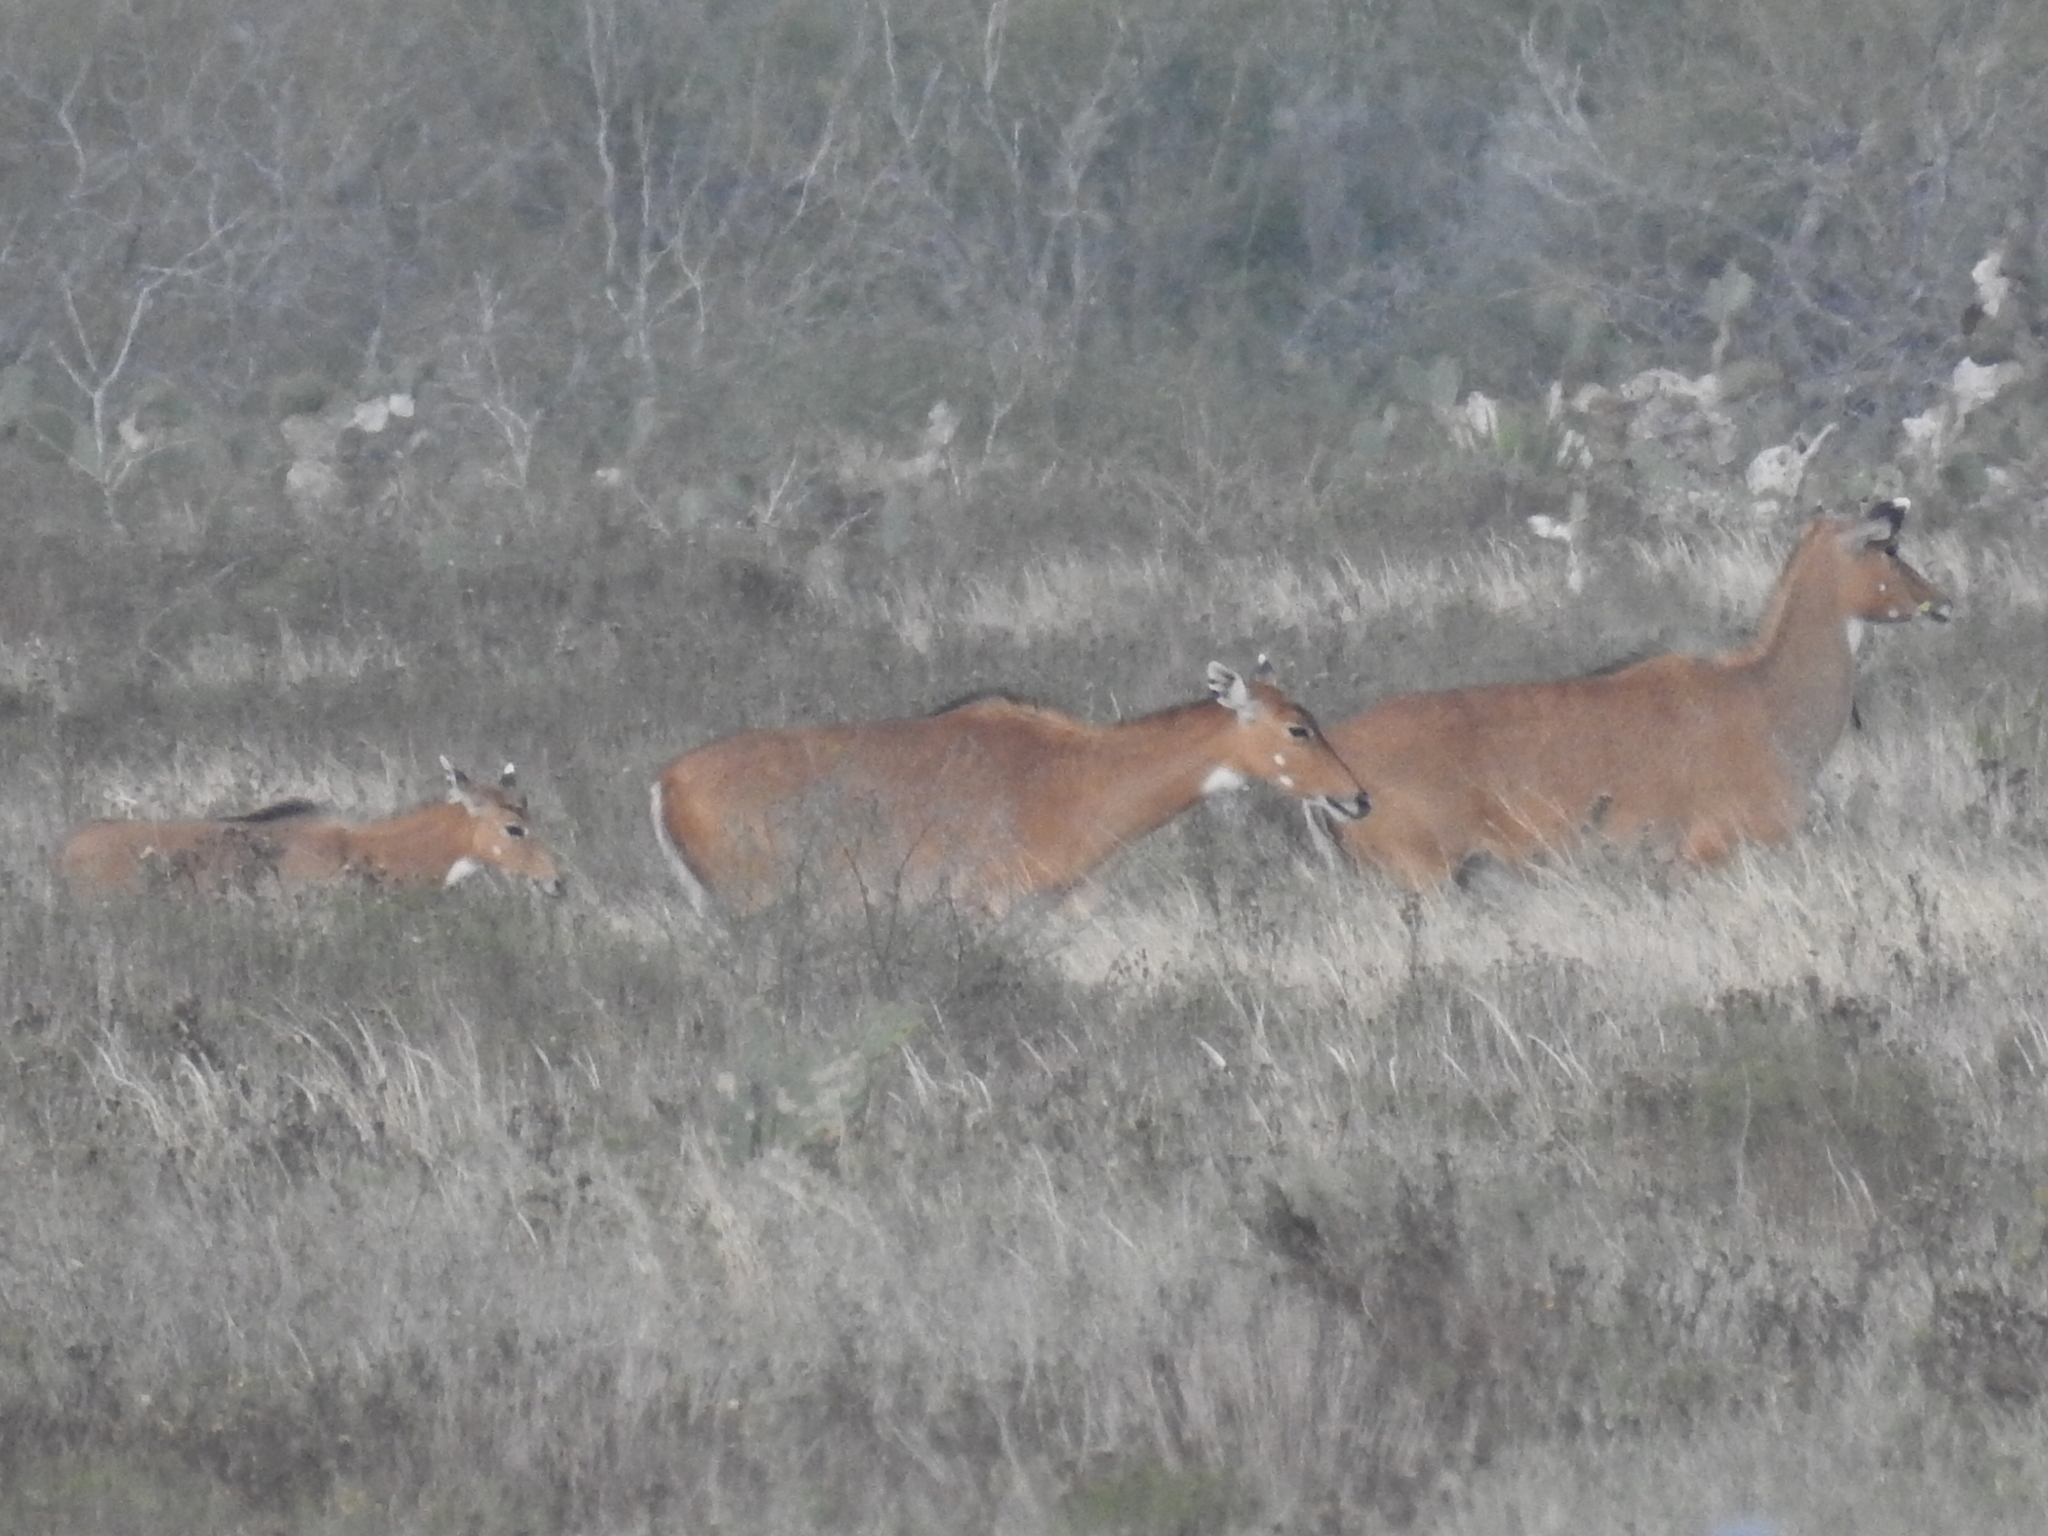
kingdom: Animalia
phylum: Chordata
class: Mammalia
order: Artiodactyla
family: Bovidae
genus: Boselaphus
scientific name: Boselaphus tragocamelus
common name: Nilgai
